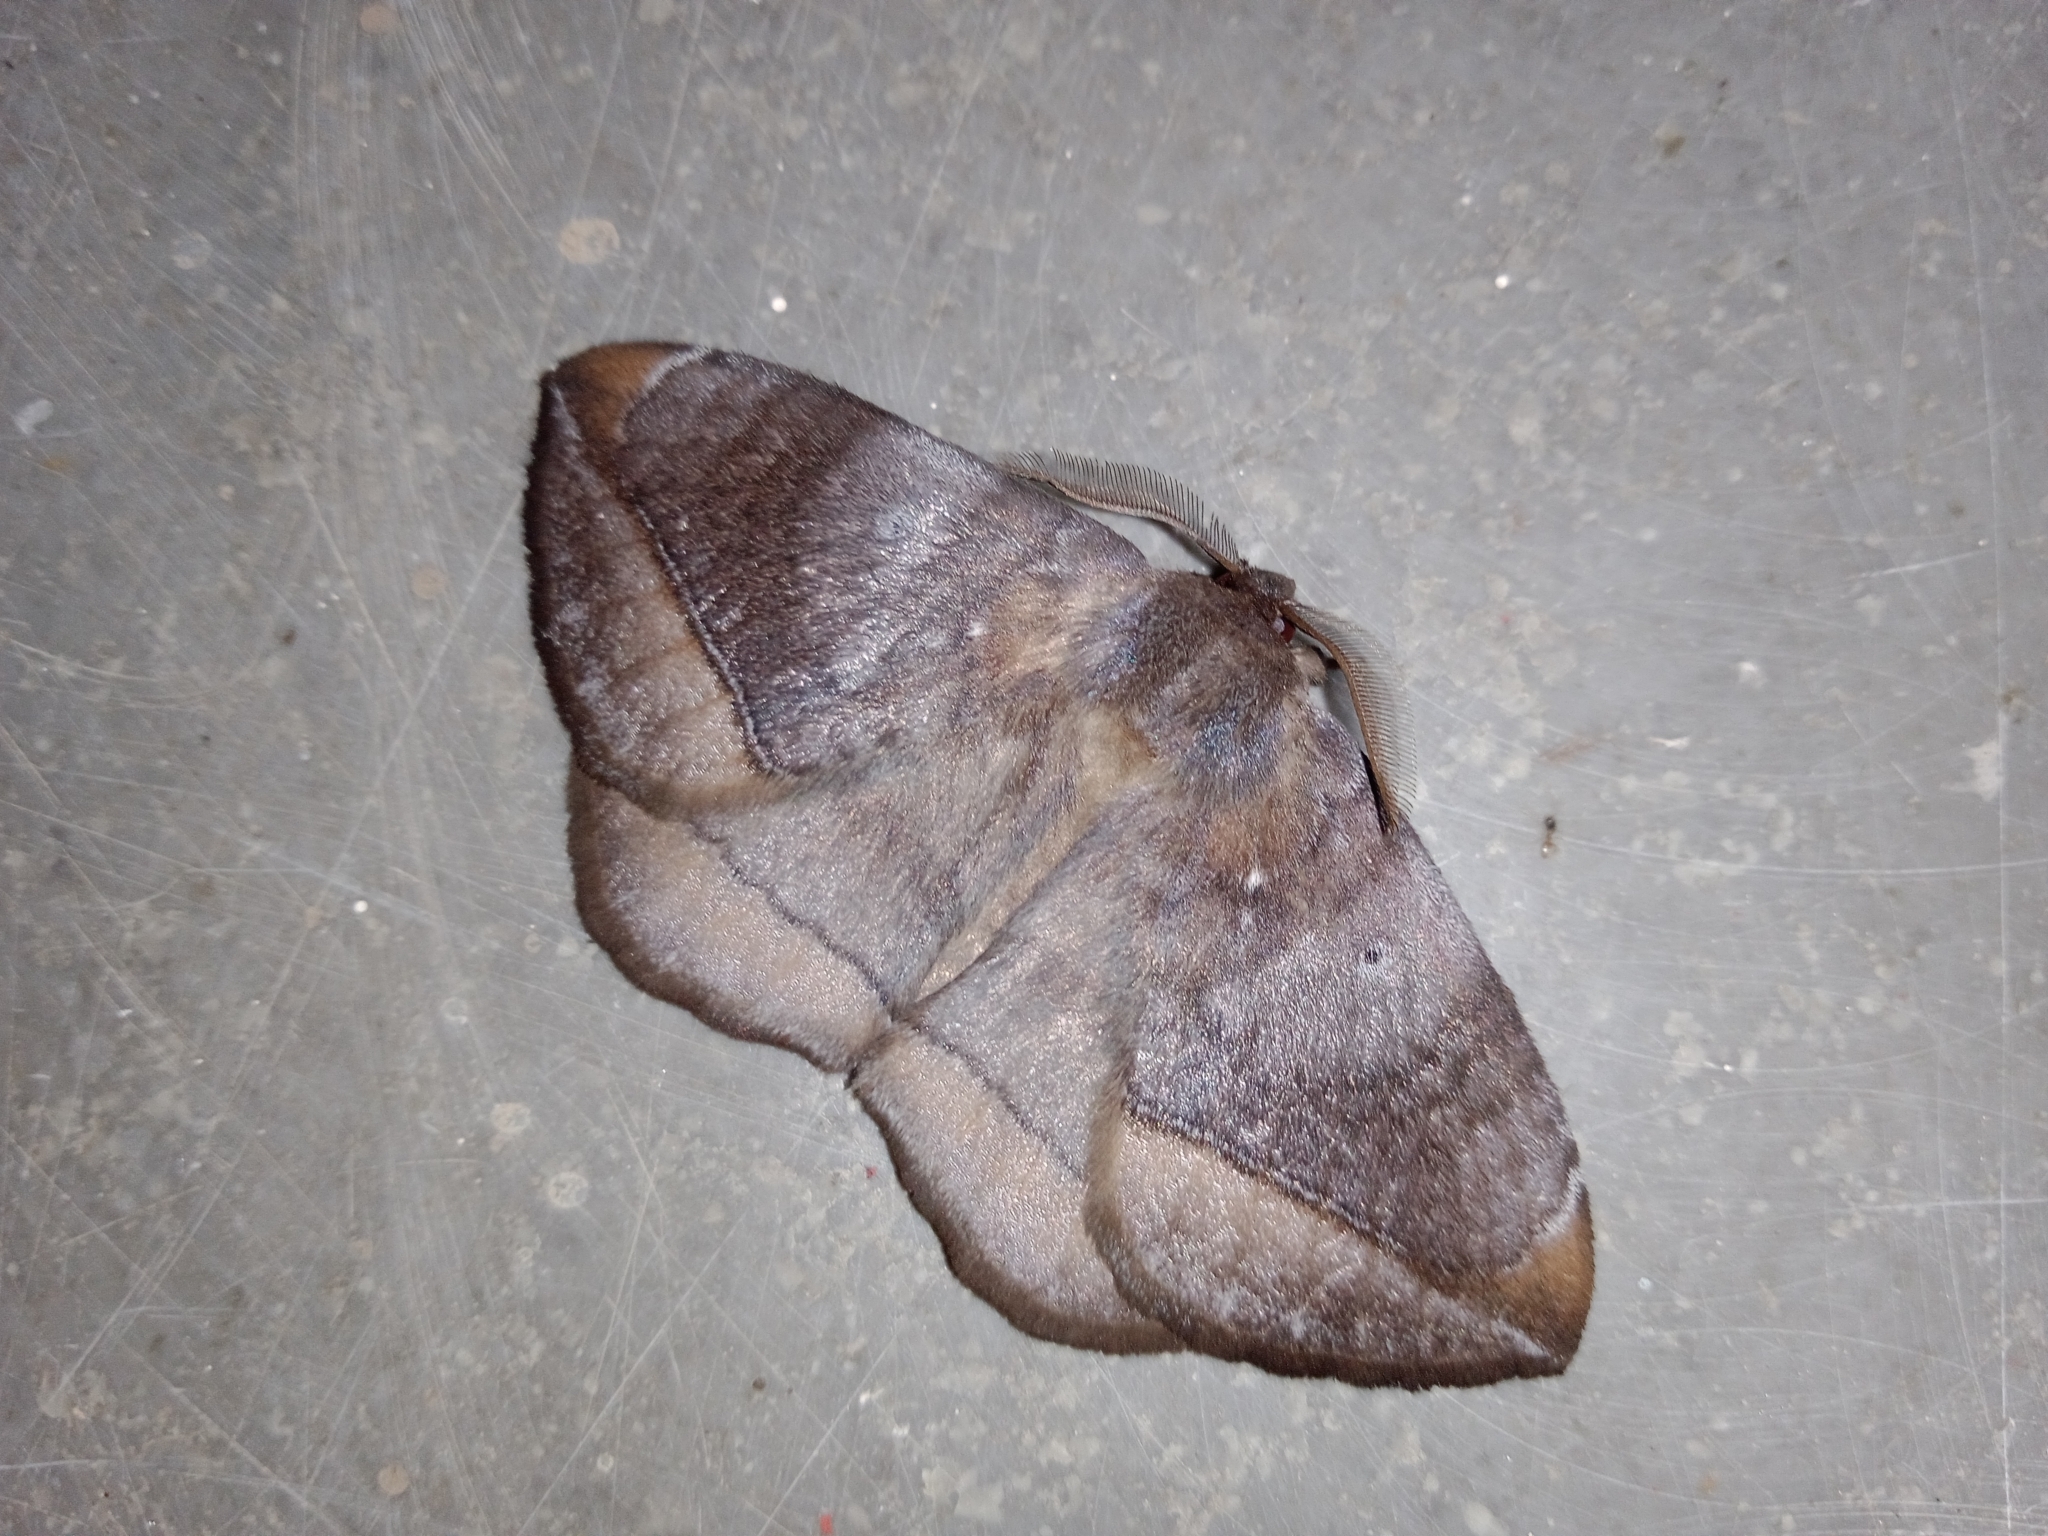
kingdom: Animalia
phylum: Arthropoda
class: Insecta
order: Lepidoptera
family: Eupterotidae
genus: Ganisa
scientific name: Ganisa postica
